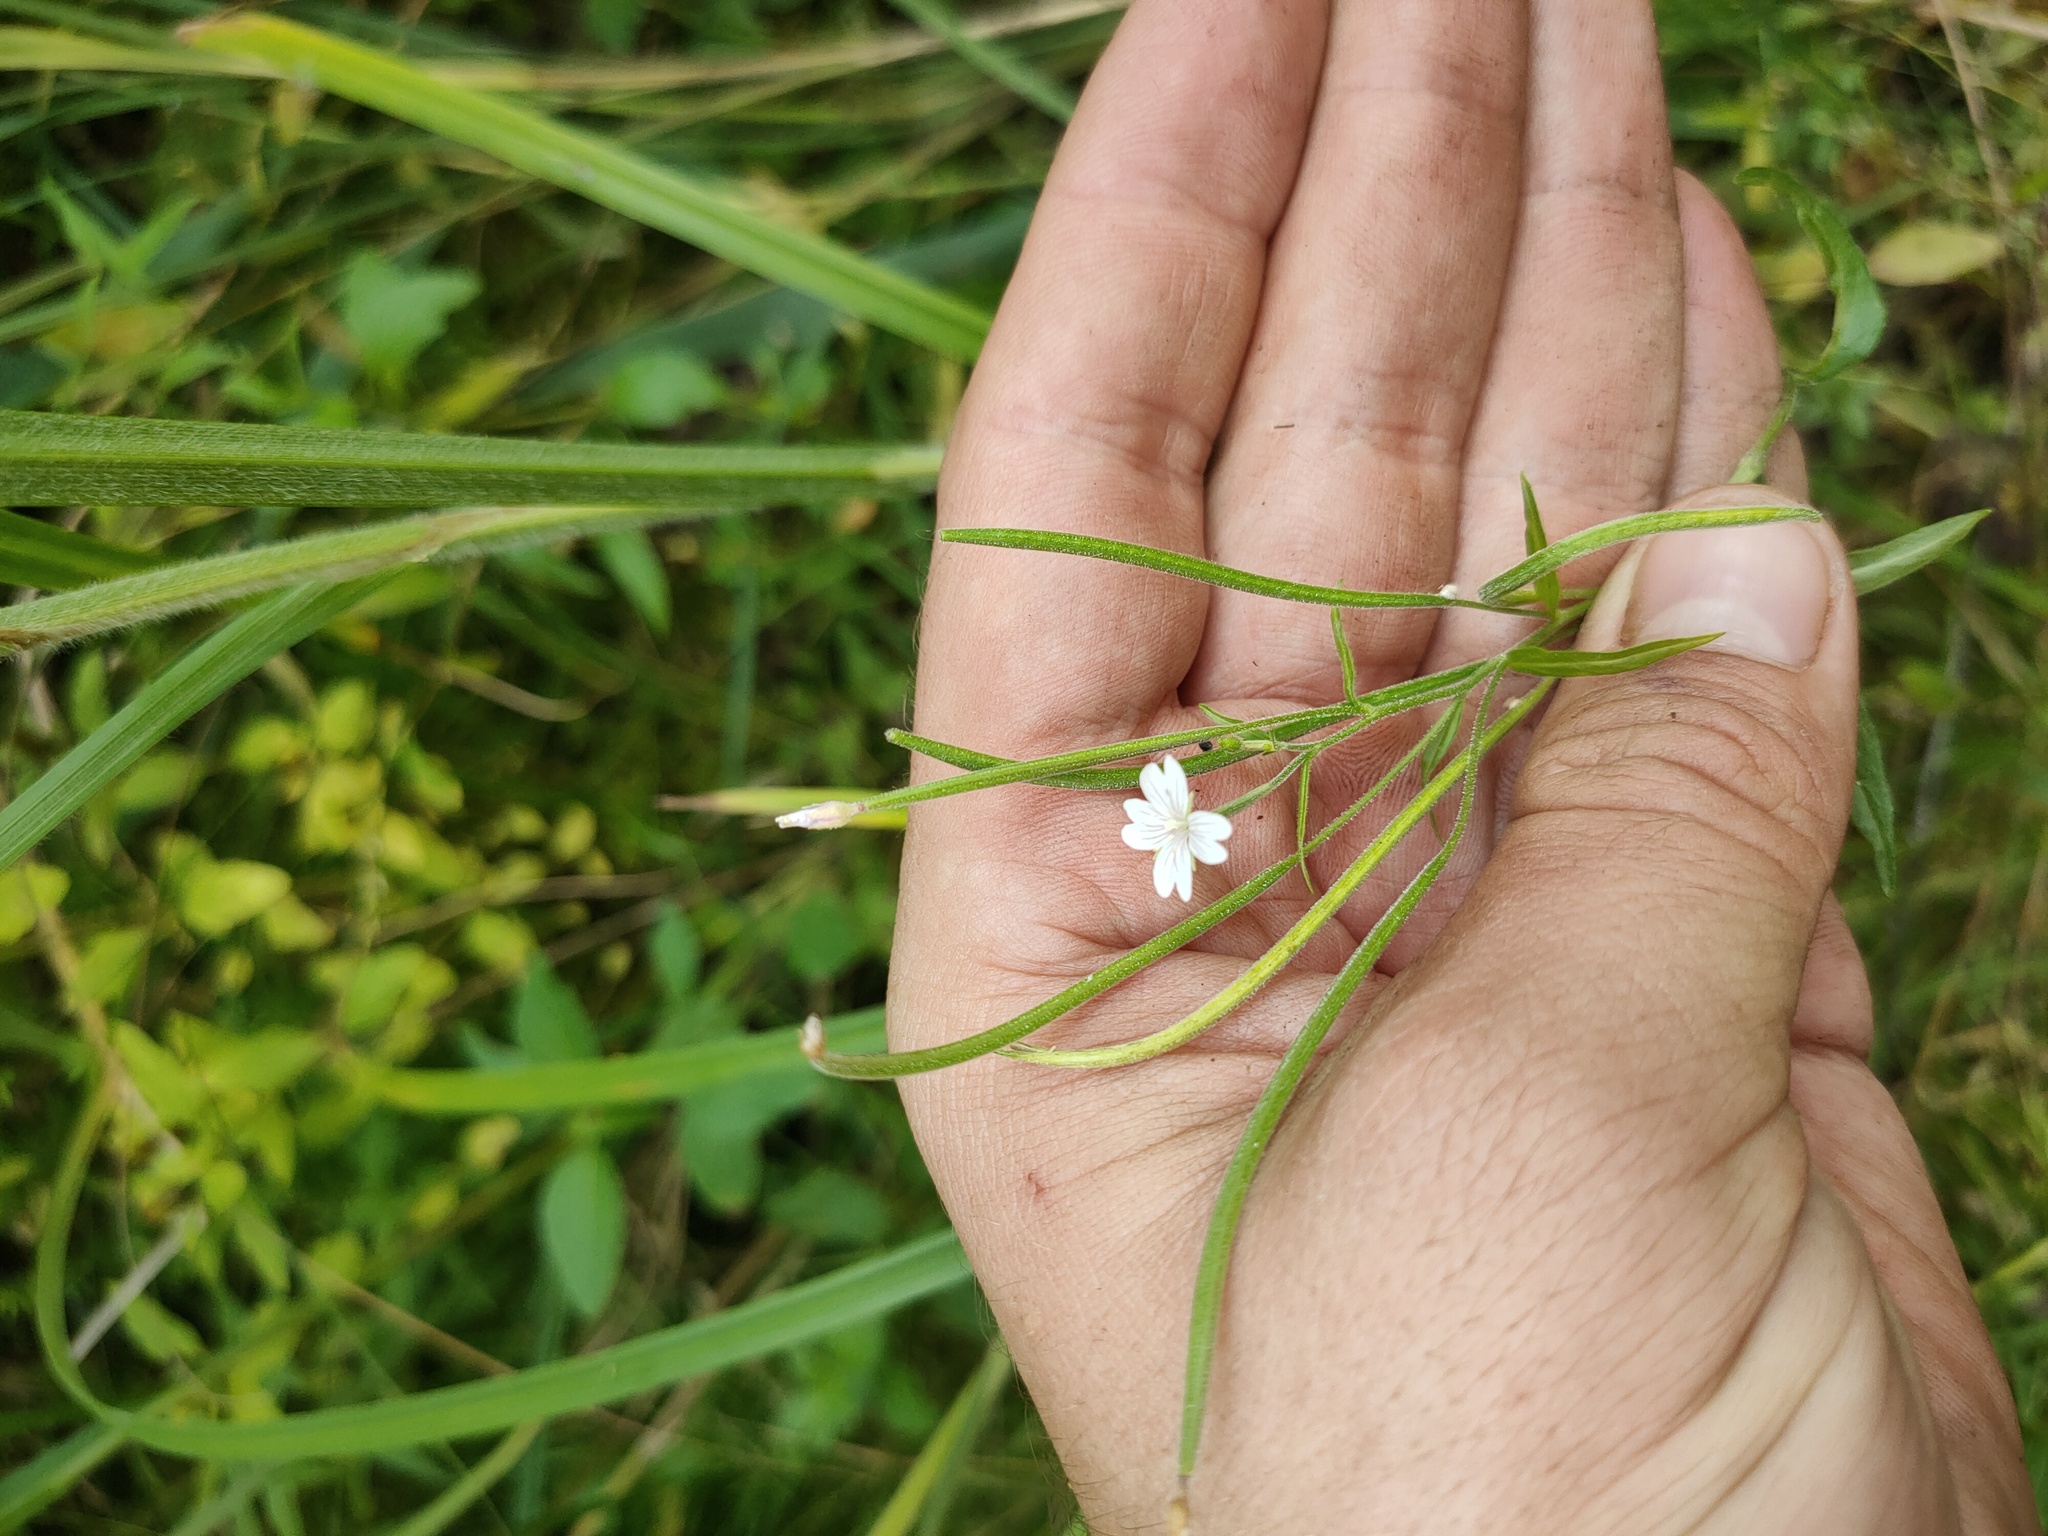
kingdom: Plantae
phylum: Tracheophyta
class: Magnoliopsida
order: Myrtales
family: Onagraceae
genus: Epilobium
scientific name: Epilobium palustre
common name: Marsh willowherb
